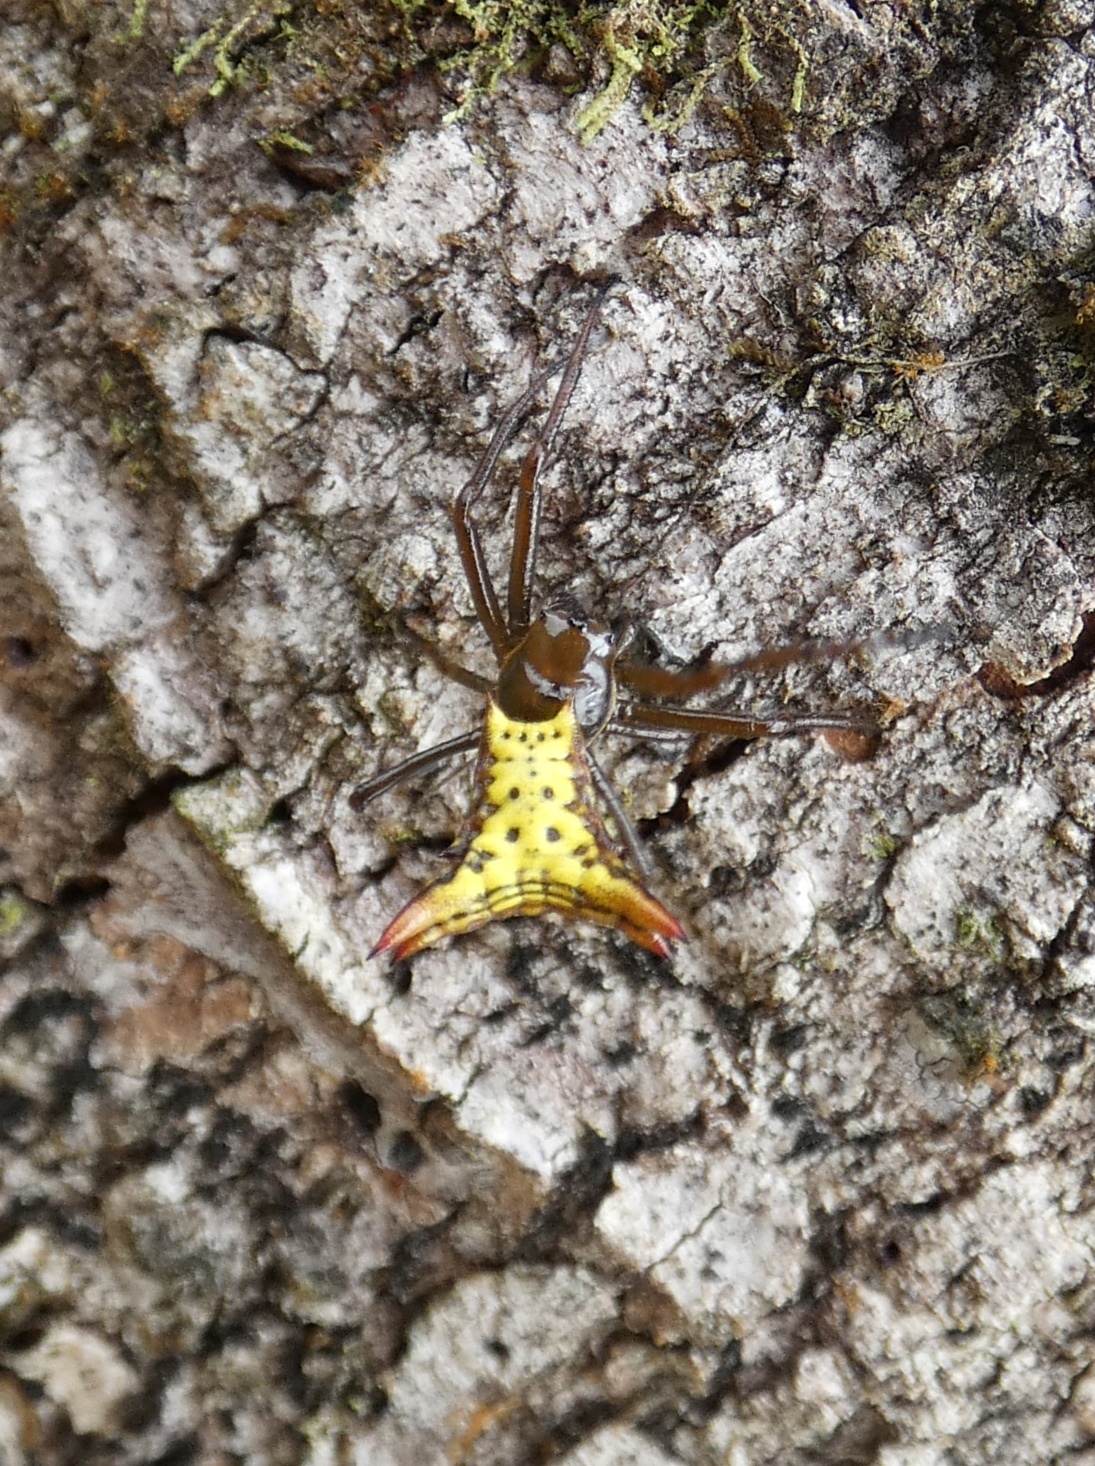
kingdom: Animalia
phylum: Arthropoda
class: Arachnida
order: Araneae
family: Araneidae
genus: Micrathena
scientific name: Micrathena lucasi
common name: Orb weavers
